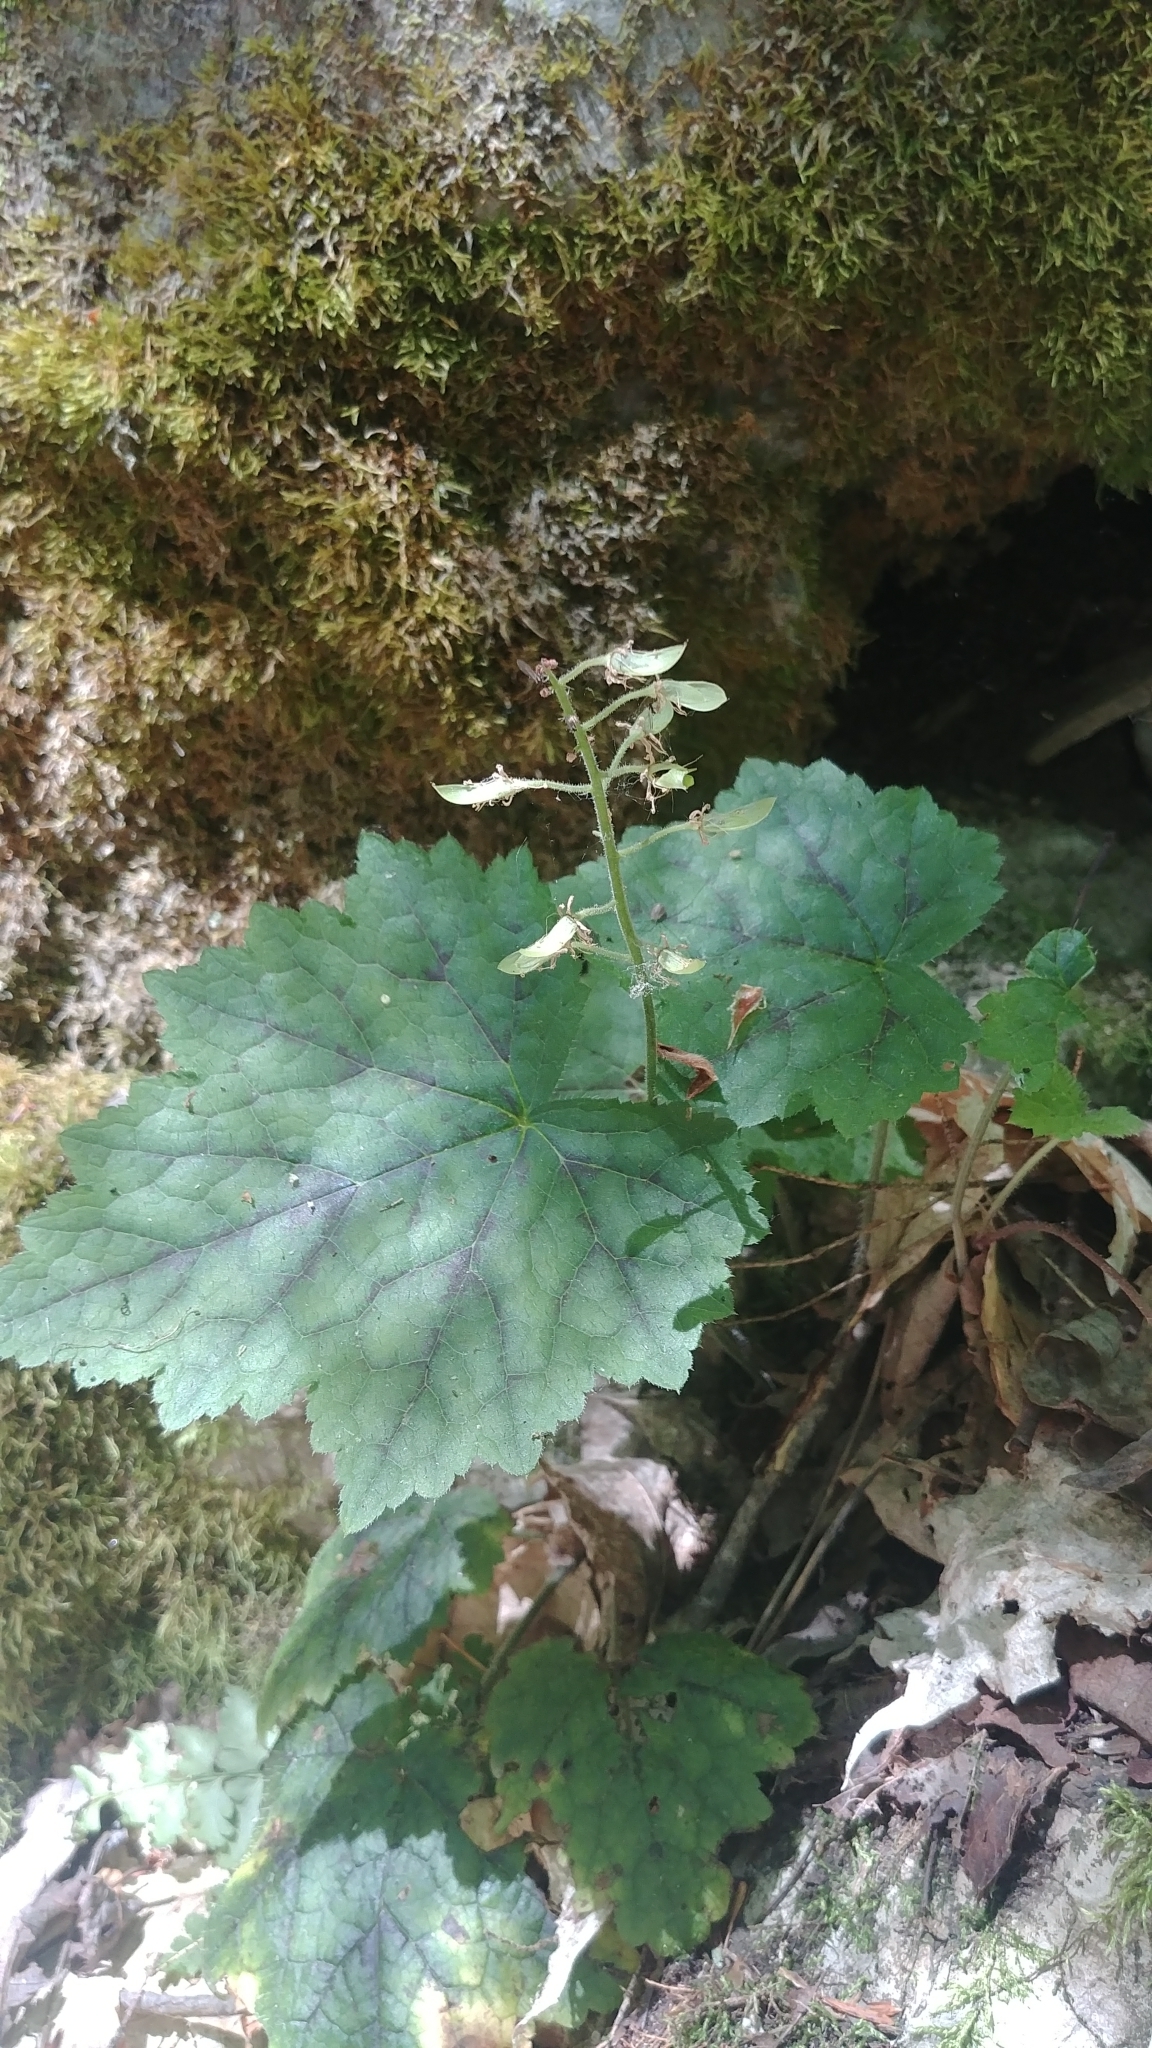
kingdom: Plantae
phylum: Tracheophyta
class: Magnoliopsida
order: Saxifragales
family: Saxifragaceae
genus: Tiarella
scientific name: Tiarella stolonifera
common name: Stoloniferous foamflower
